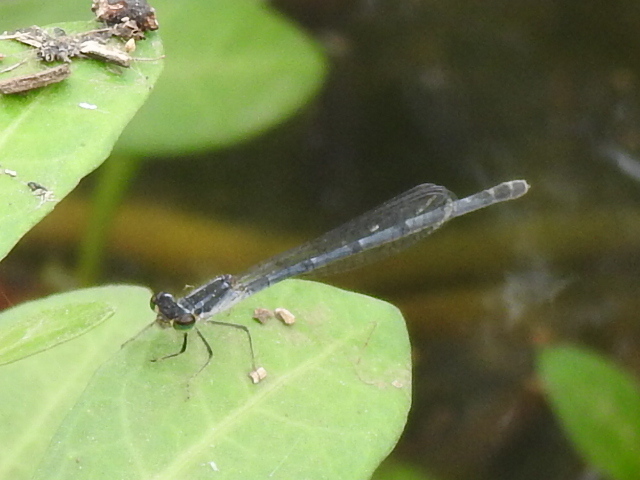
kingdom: Animalia
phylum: Arthropoda
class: Insecta
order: Odonata
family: Coenagrionidae
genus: Ischnura
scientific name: Ischnura posita
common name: Fragile forktail
